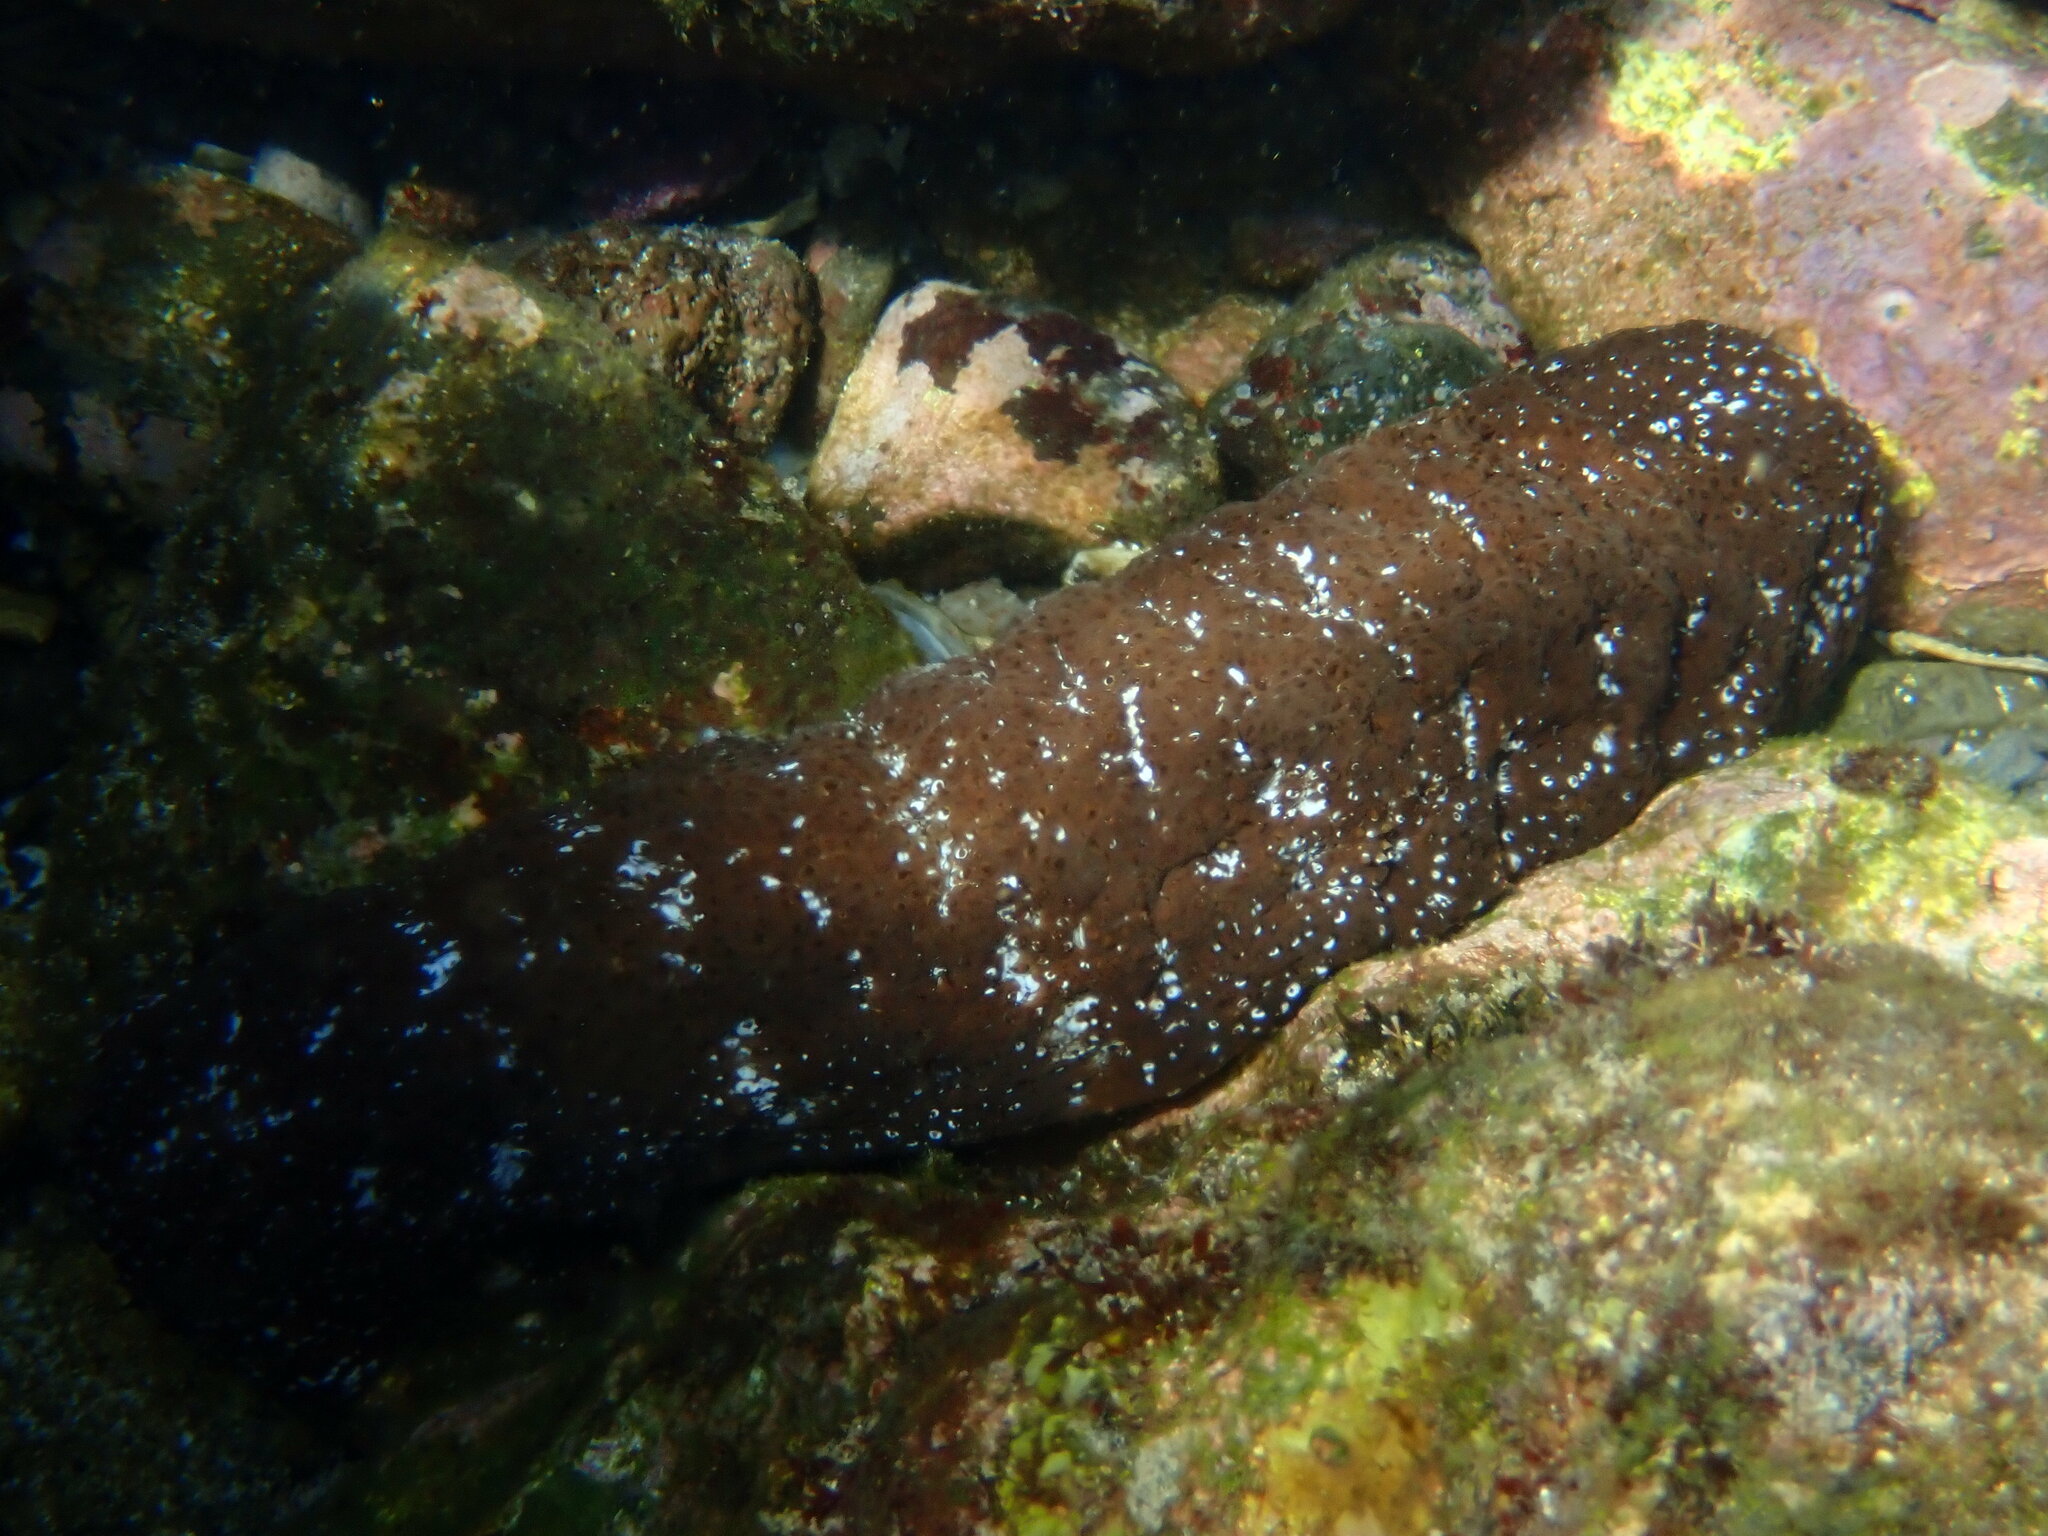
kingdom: Animalia
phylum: Echinodermata
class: Holothuroidea
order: Holothuriida
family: Holothuriidae
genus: Actinopyga
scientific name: Actinopyga varians
